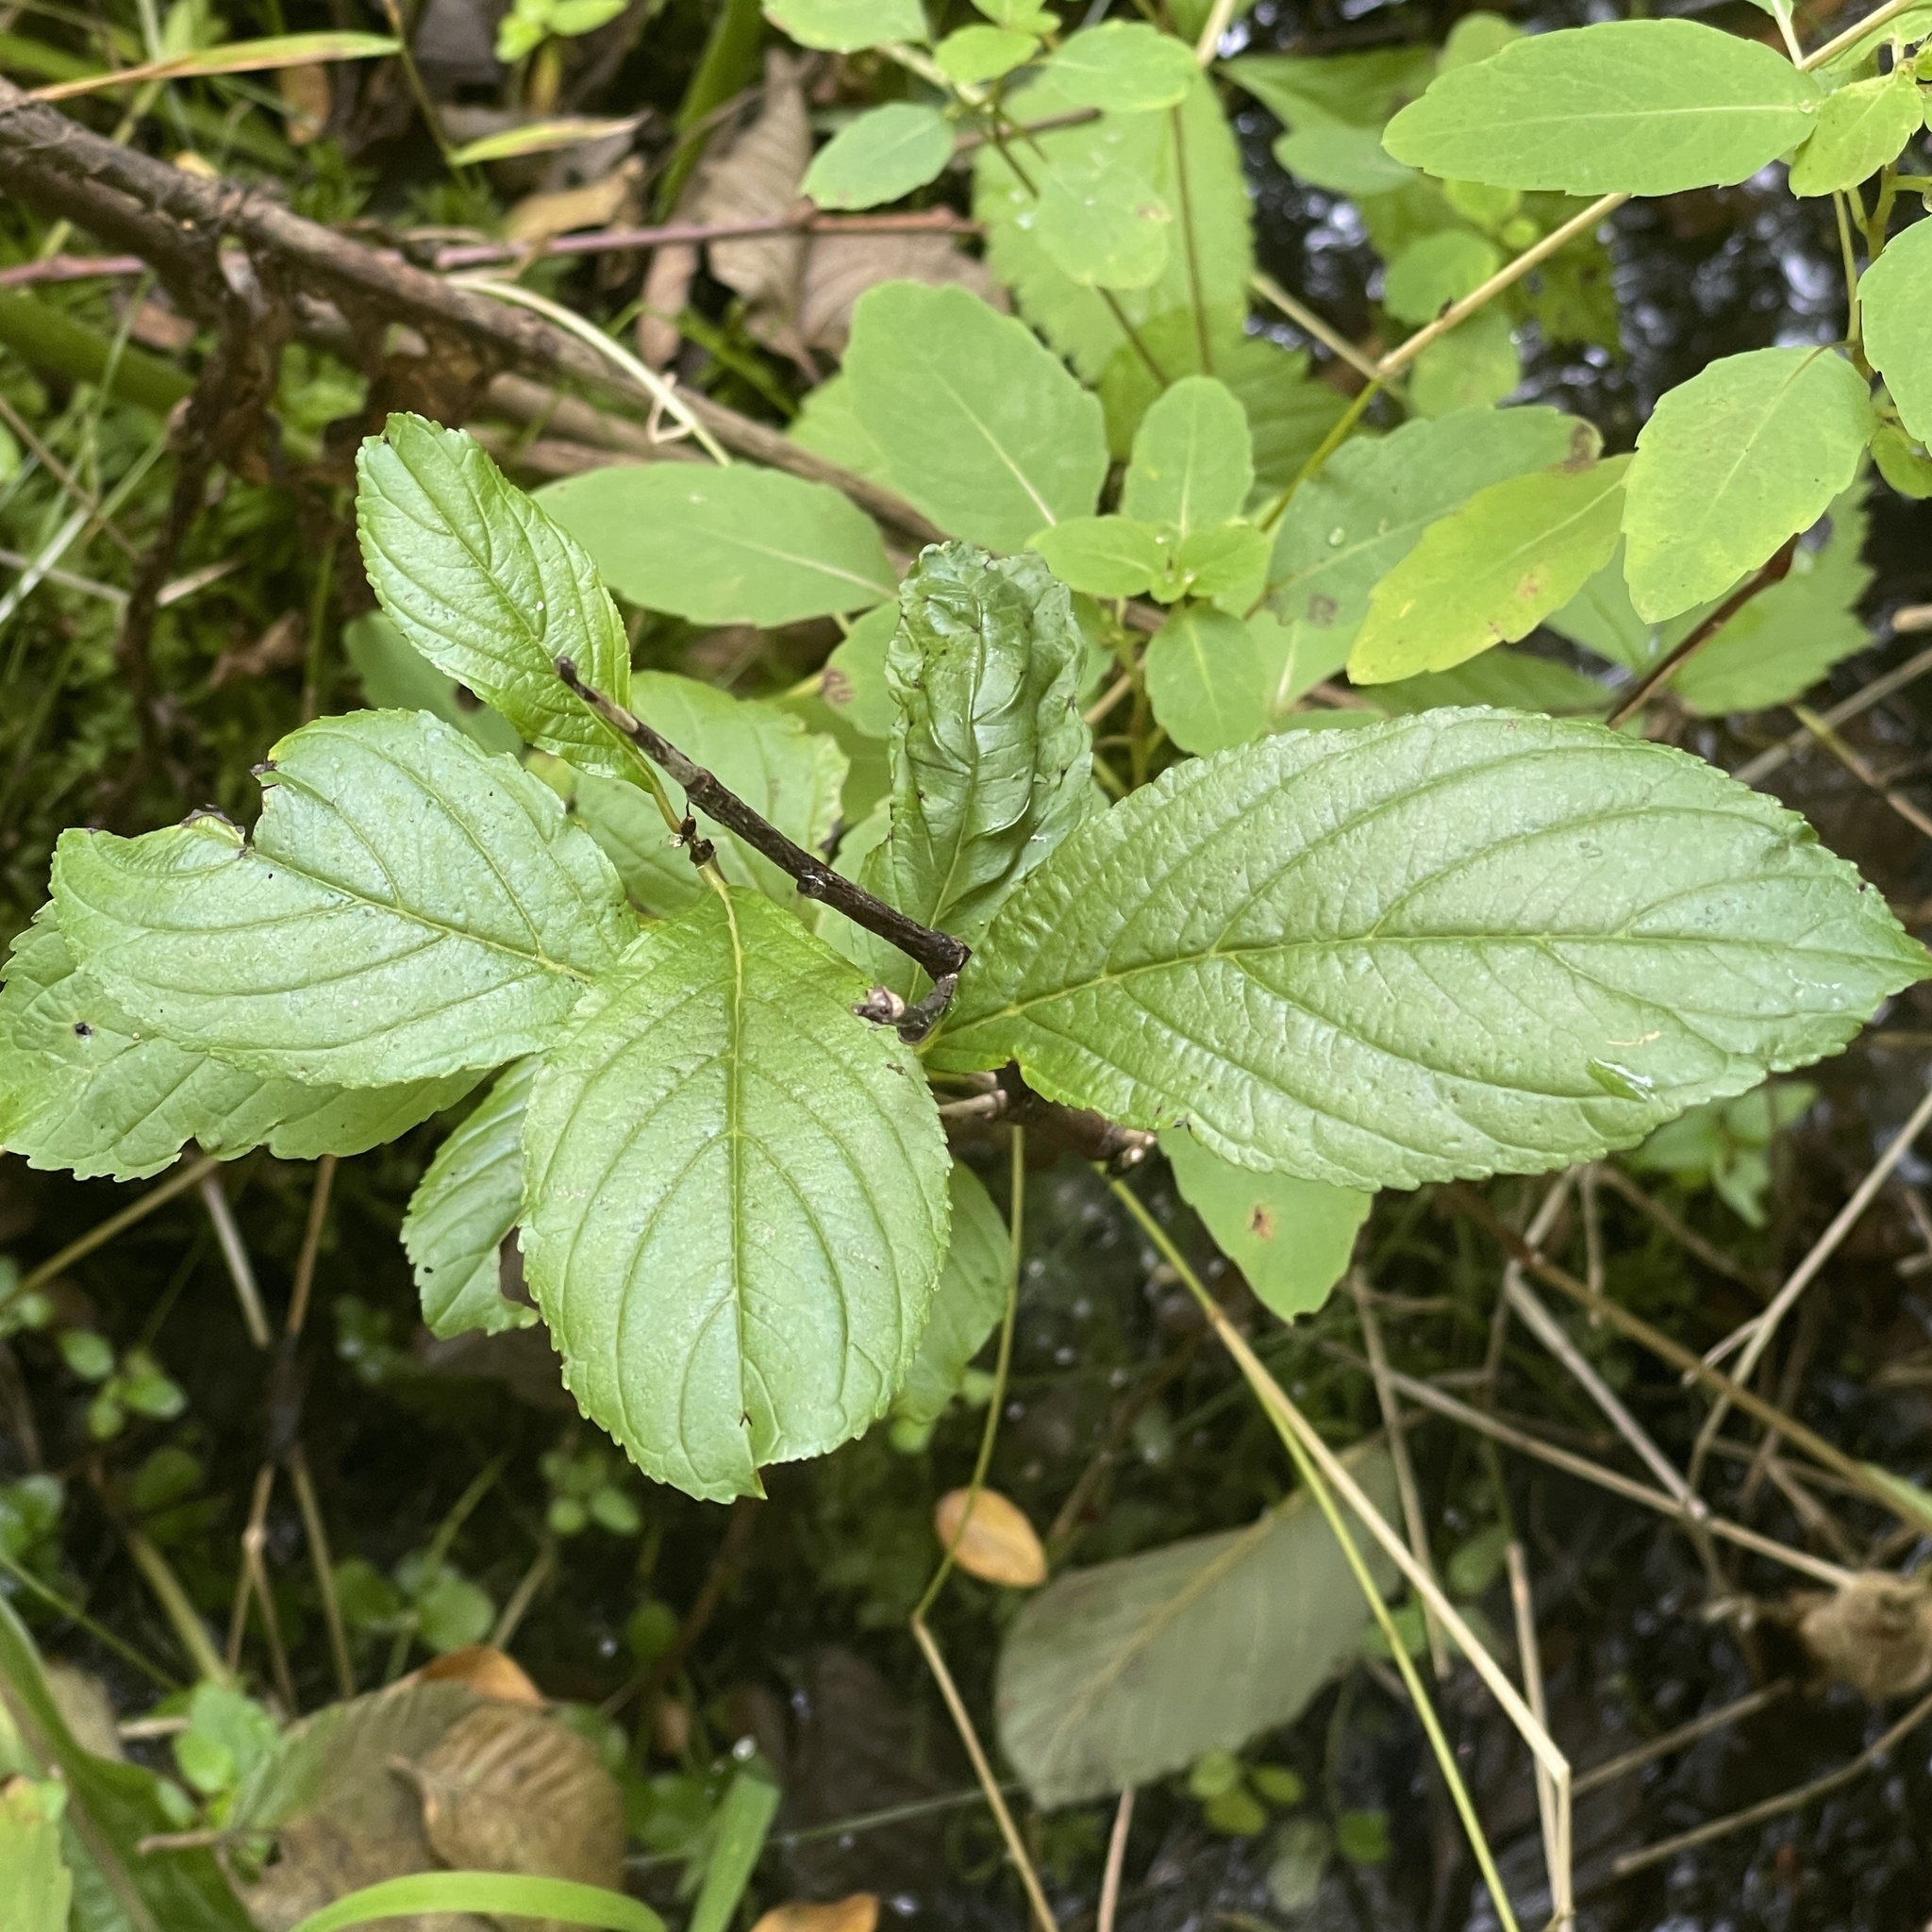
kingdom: Plantae
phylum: Tracheophyta
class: Magnoliopsida
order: Rosales
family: Rhamnaceae
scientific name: Rhamnaceae
